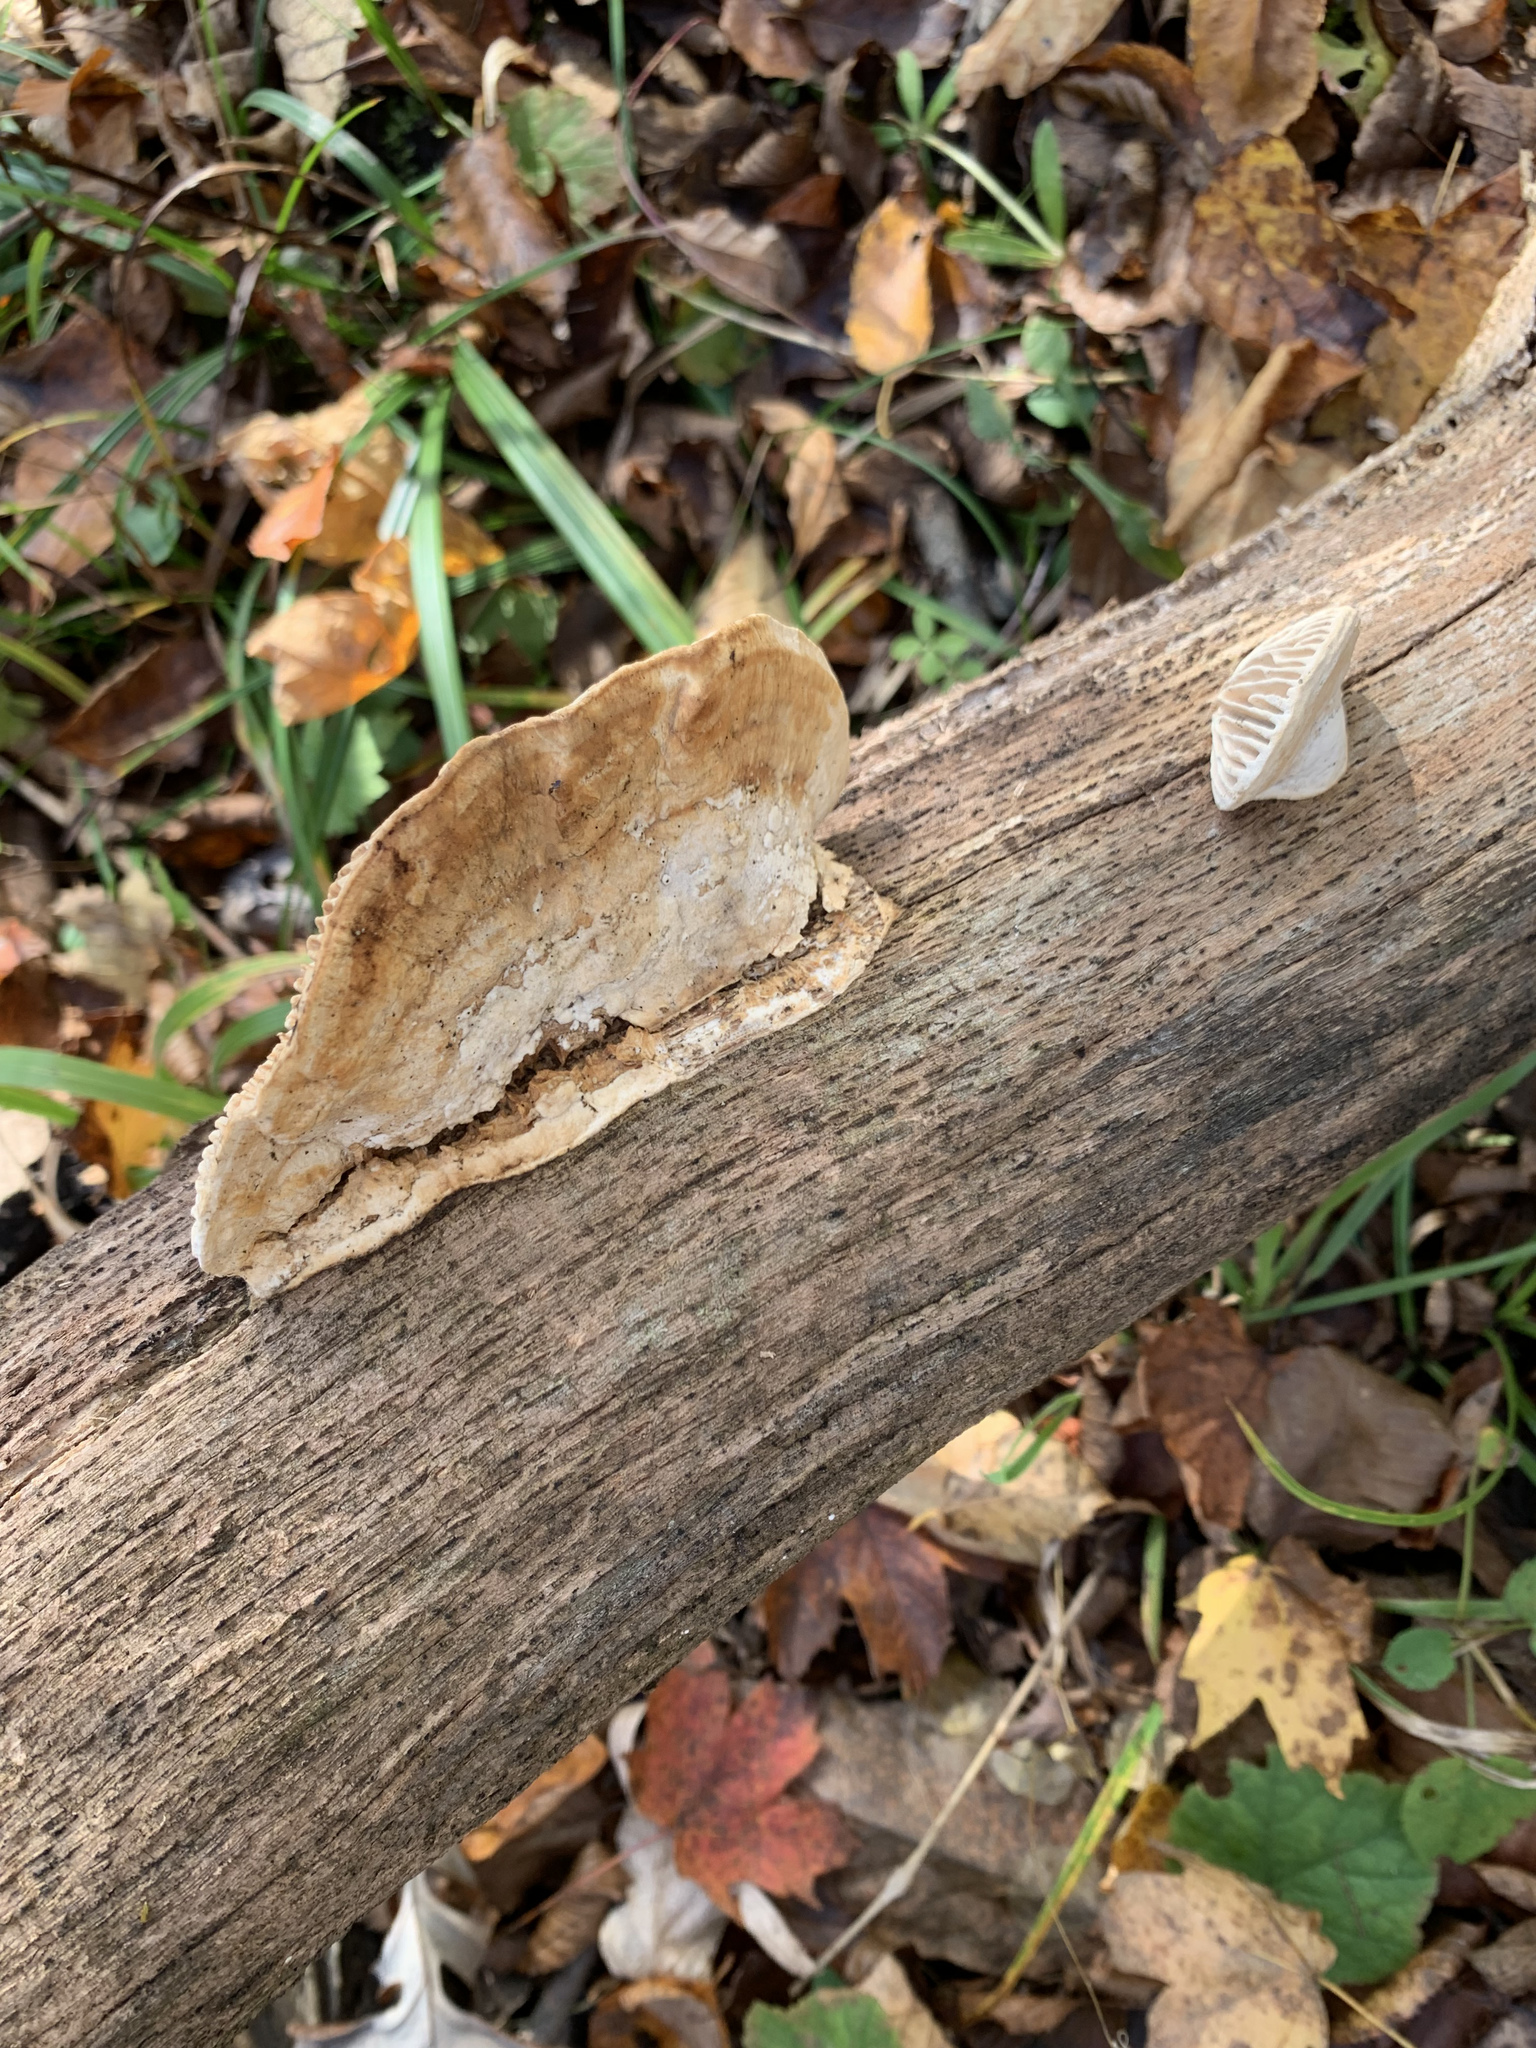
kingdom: Fungi
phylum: Basidiomycota
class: Agaricomycetes
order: Polyporales
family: Fomitopsidaceae
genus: Fomitopsis
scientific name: Fomitopsis
